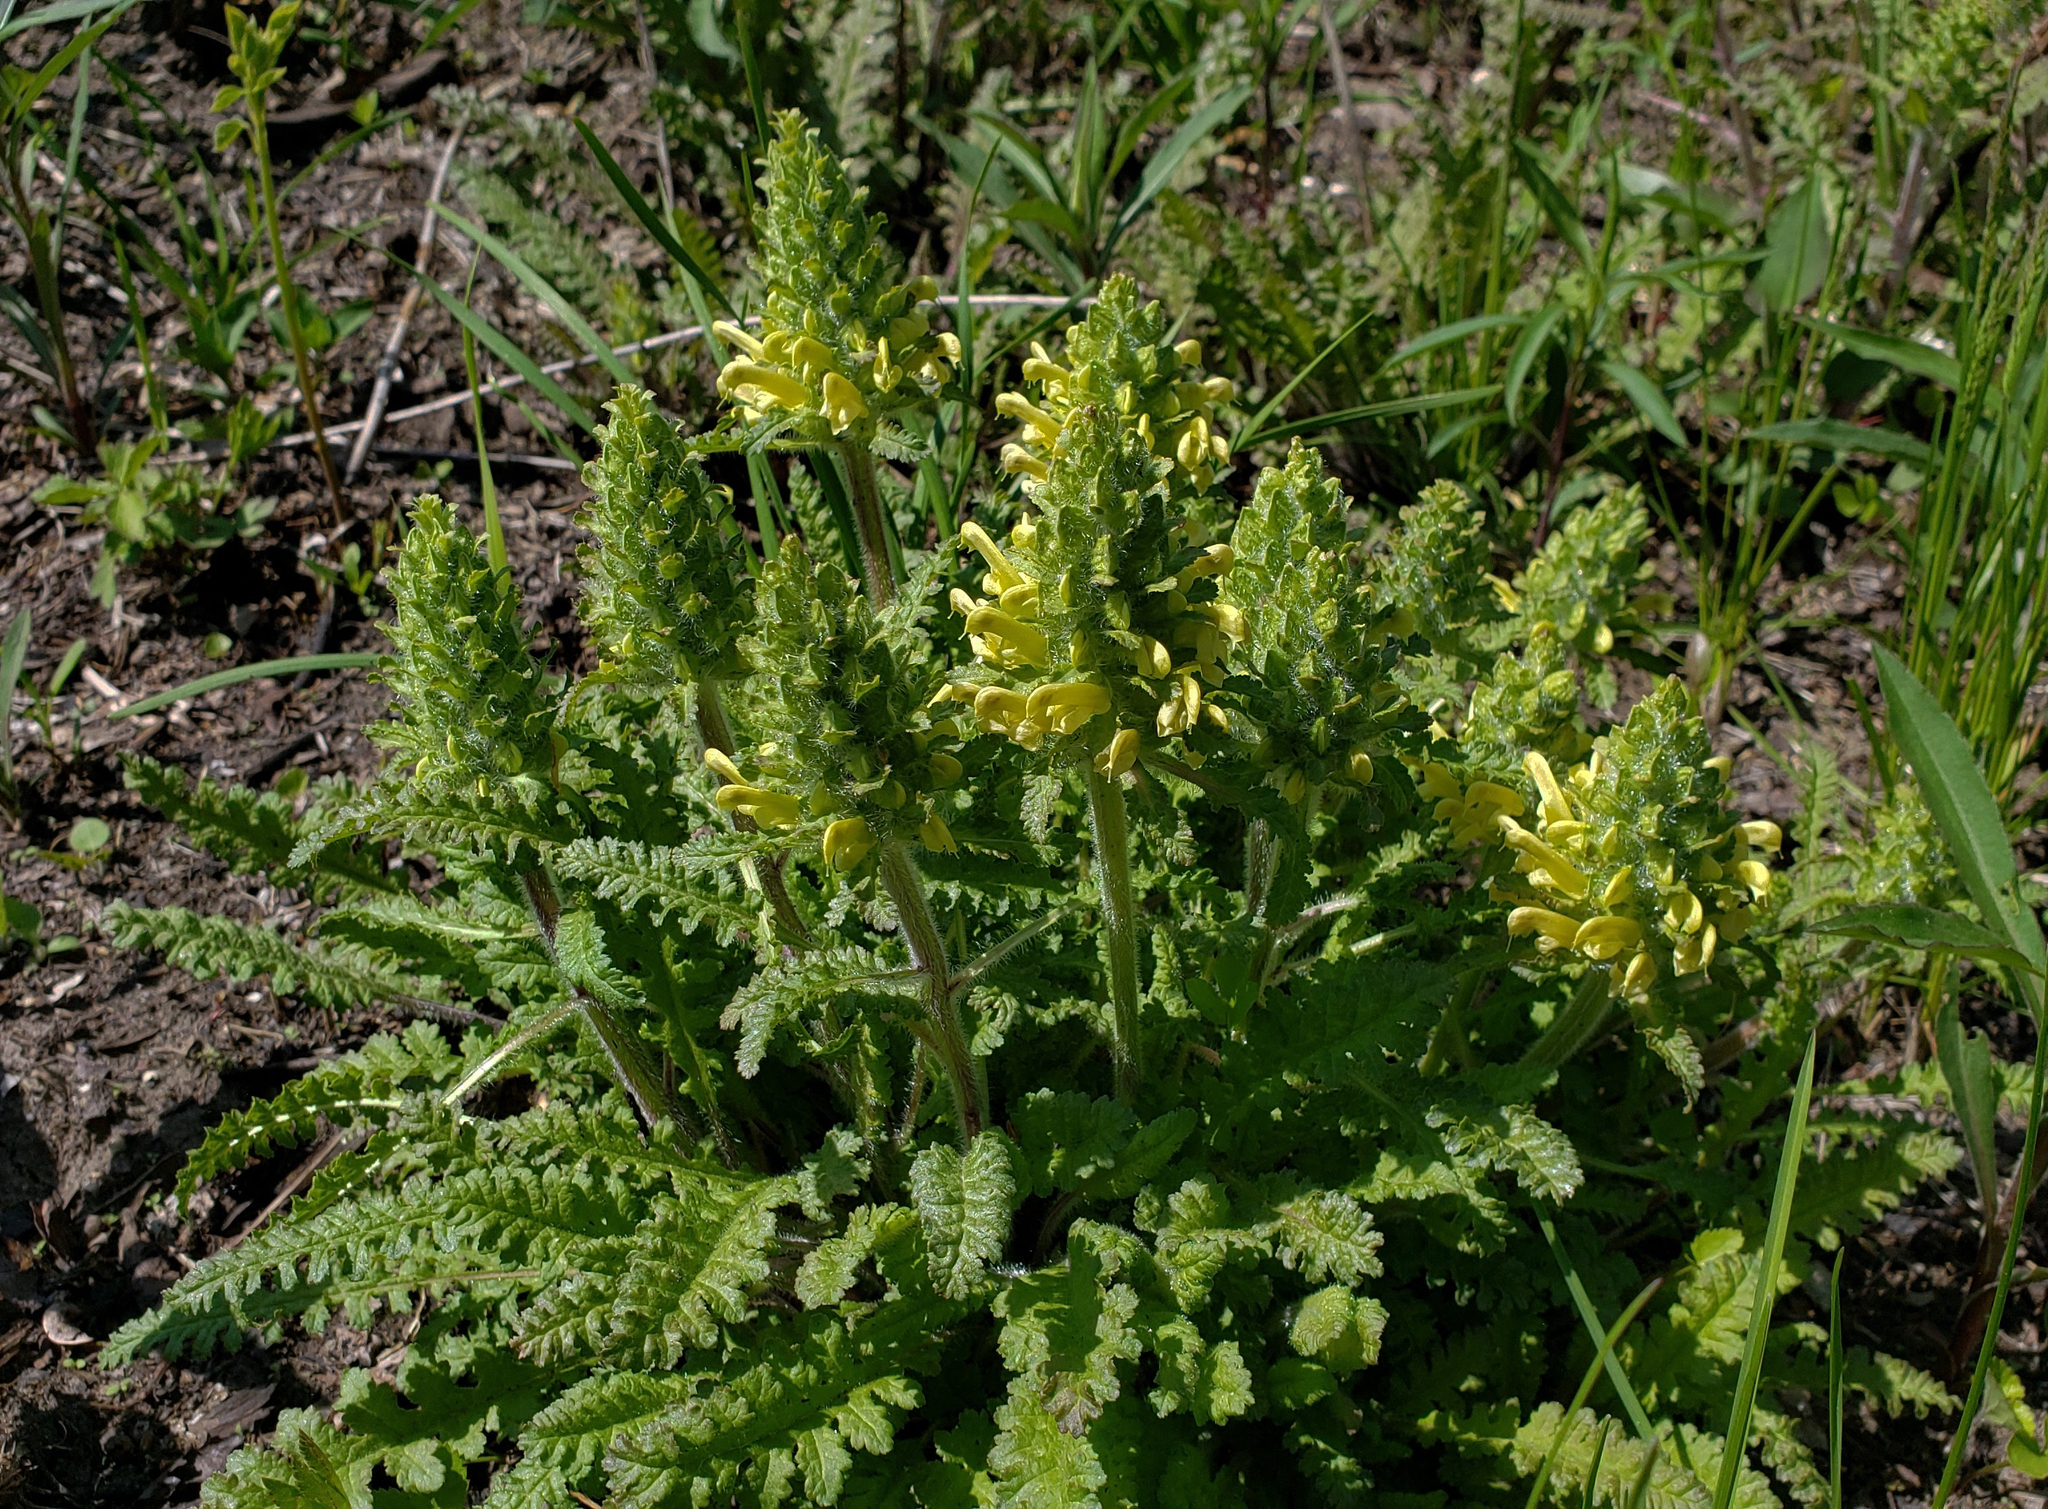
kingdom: Plantae
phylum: Tracheophyta
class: Magnoliopsida
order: Lamiales
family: Orobanchaceae
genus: Pedicularis
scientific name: Pedicularis canadensis
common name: Early lousewort
